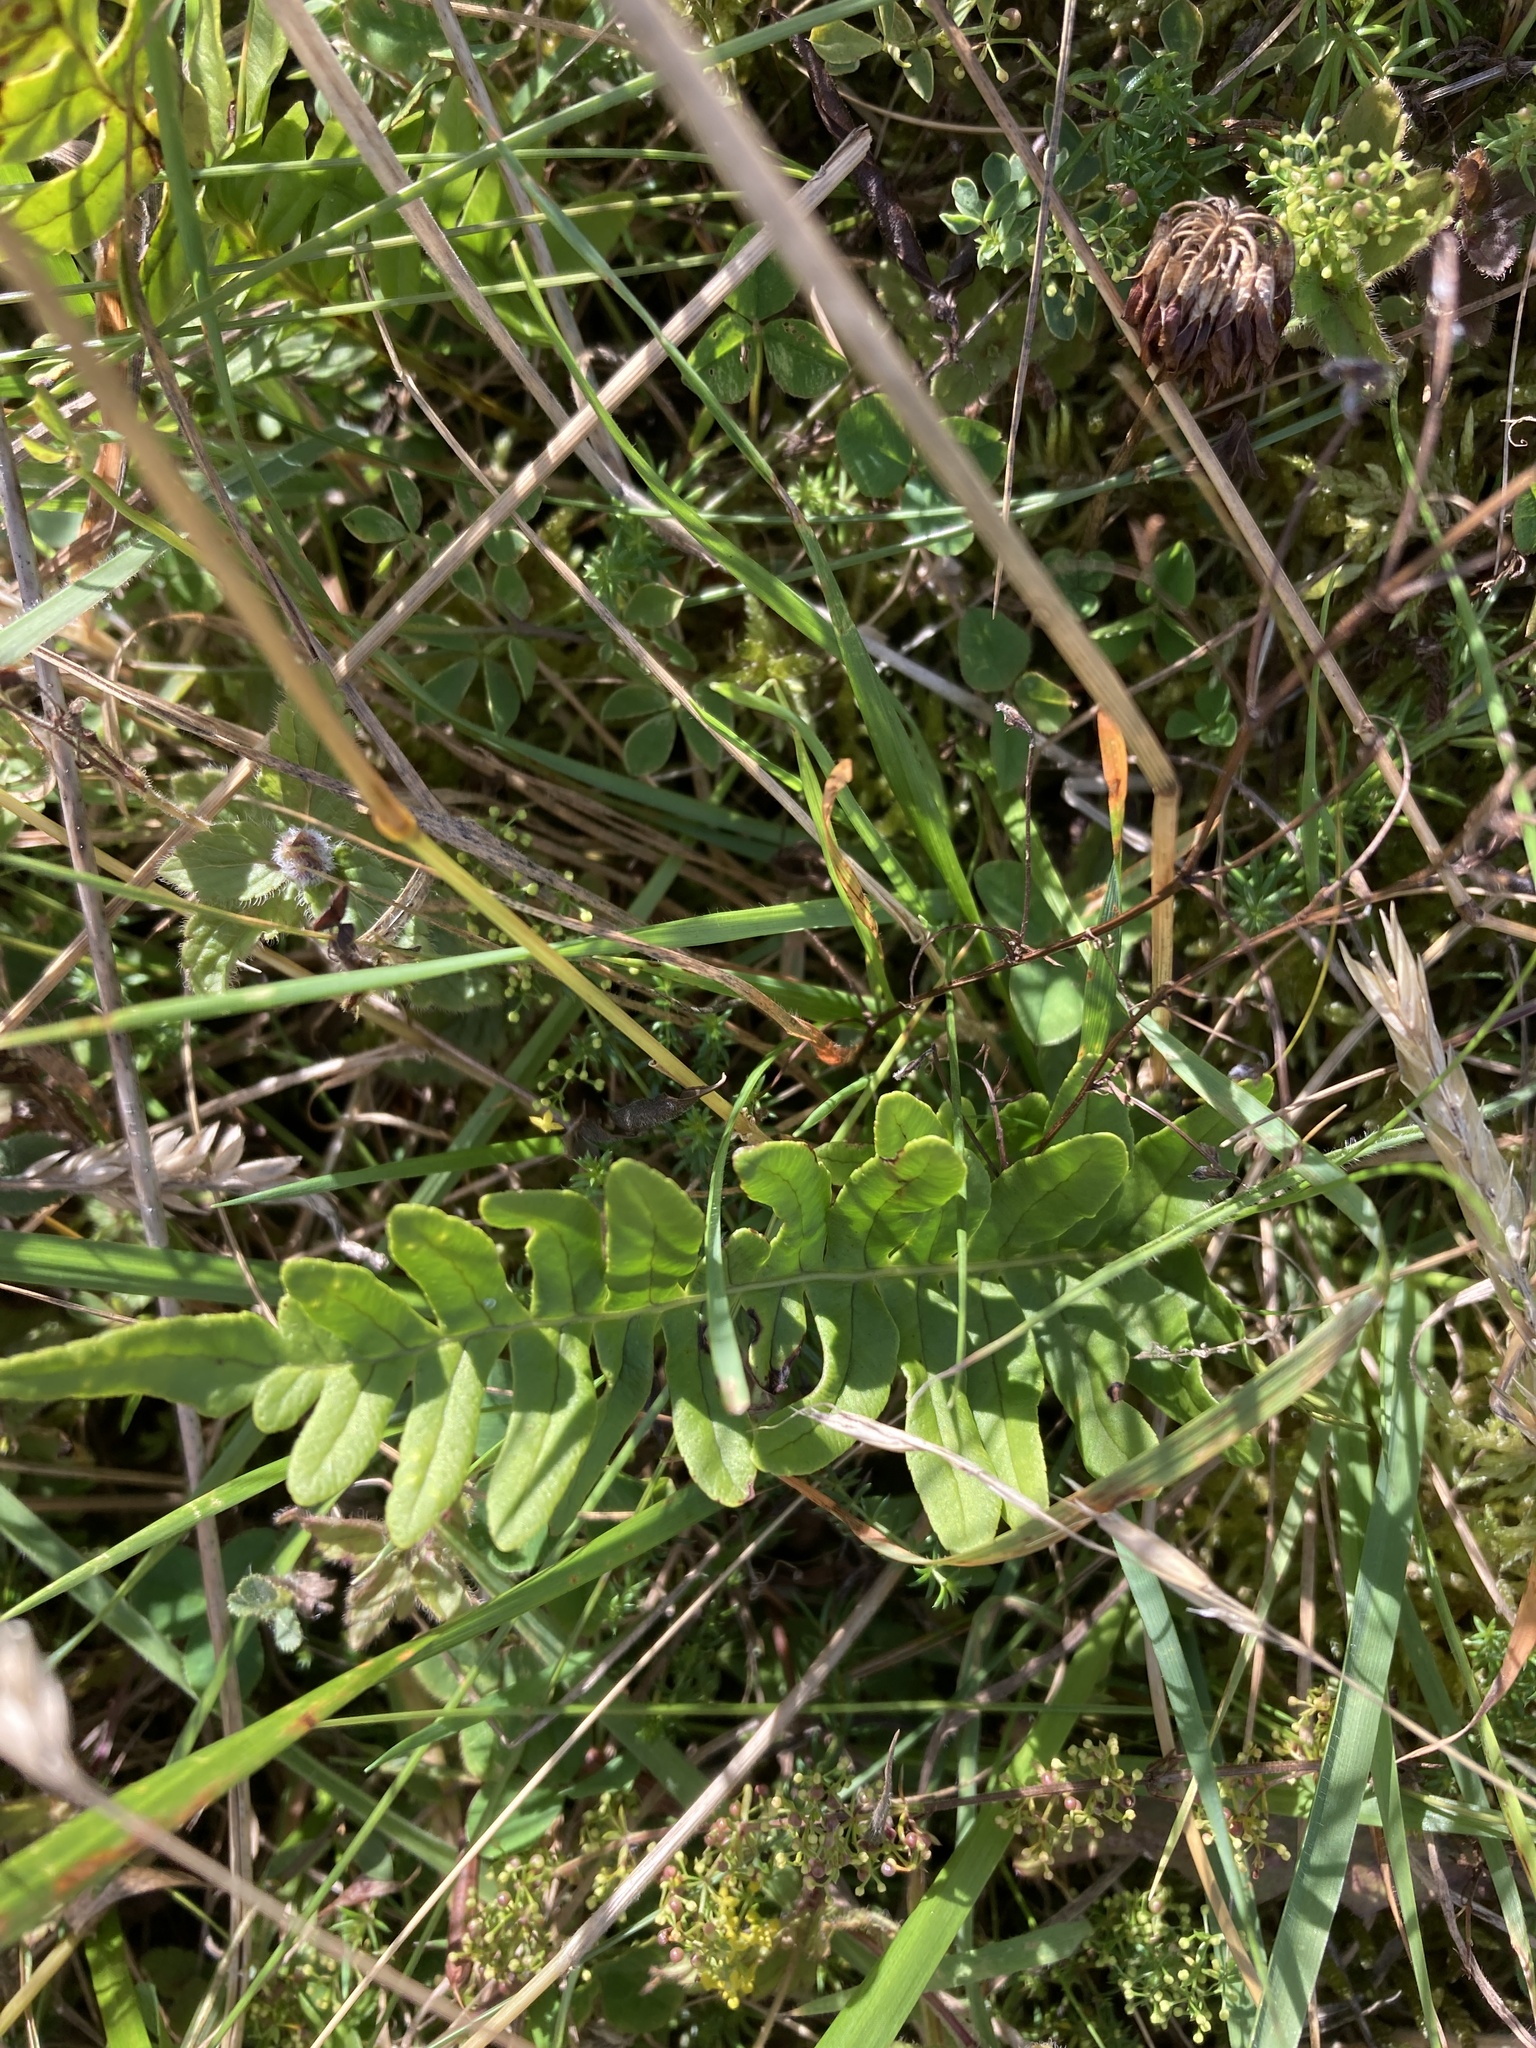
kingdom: Plantae
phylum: Tracheophyta
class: Polypodiopsida
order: Polypodiales
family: Polypodiaceae
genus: Polypodium
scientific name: Polypodium vulgare
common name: Common polypody
